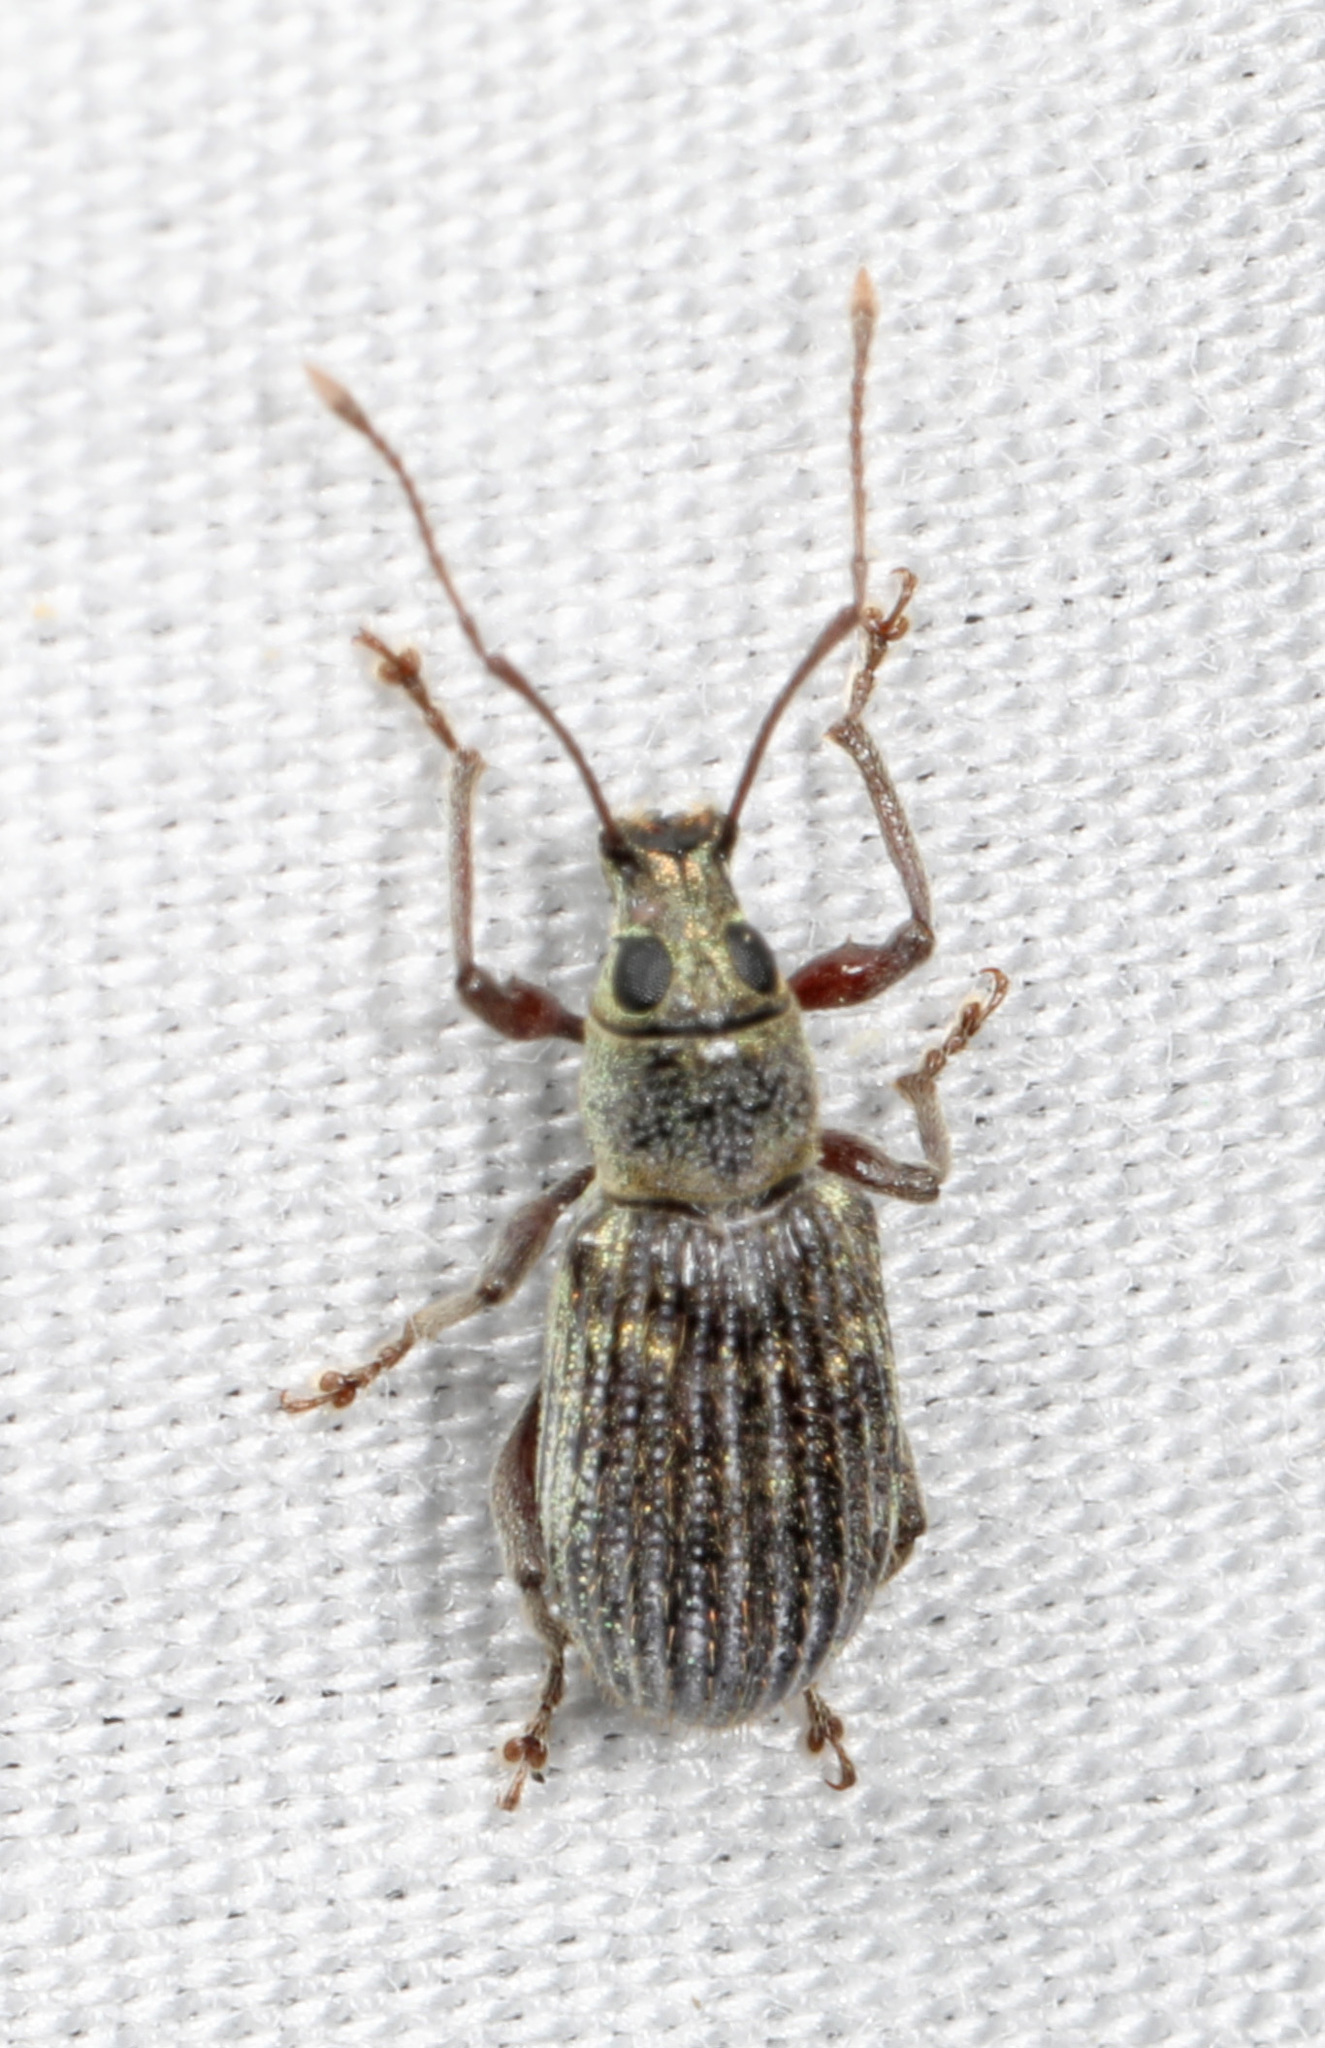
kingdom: Animalia
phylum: Arthropoda
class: Insecta
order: Coleoptera
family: Curculionidae
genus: Cyrtepistomus
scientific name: Cyrtepistomus castaneus
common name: Weevil
